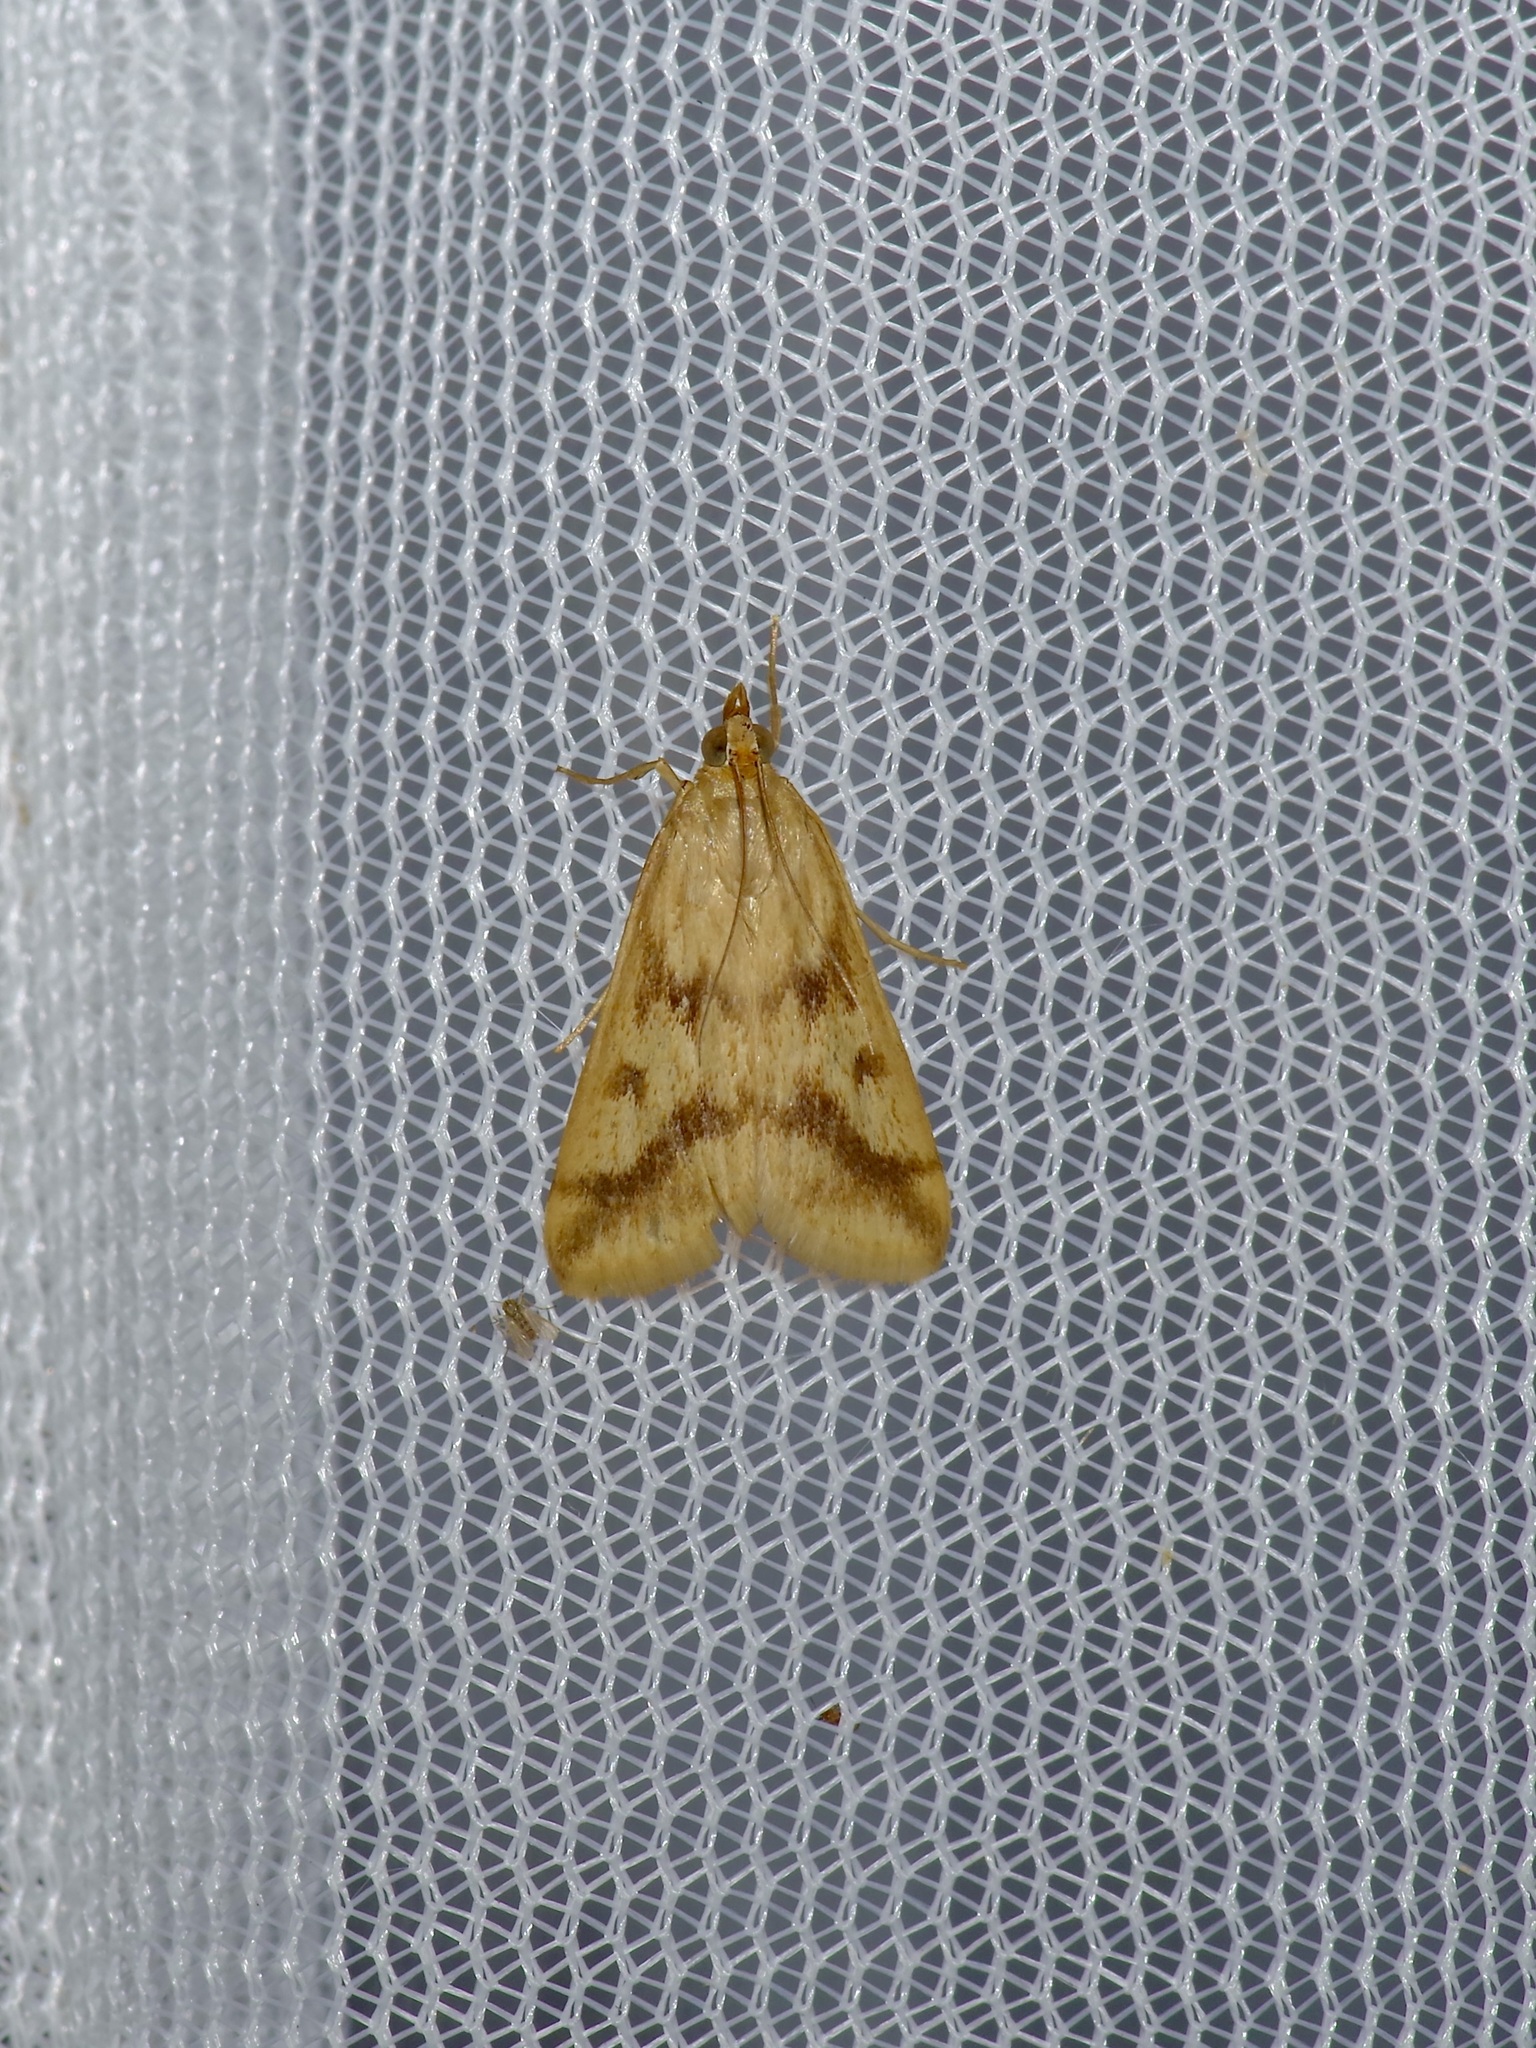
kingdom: Animalia
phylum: Arthropoda
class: Insecta
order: Lepidoptera
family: Crambidae
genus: Achyra
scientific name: Achyra bifidalis
